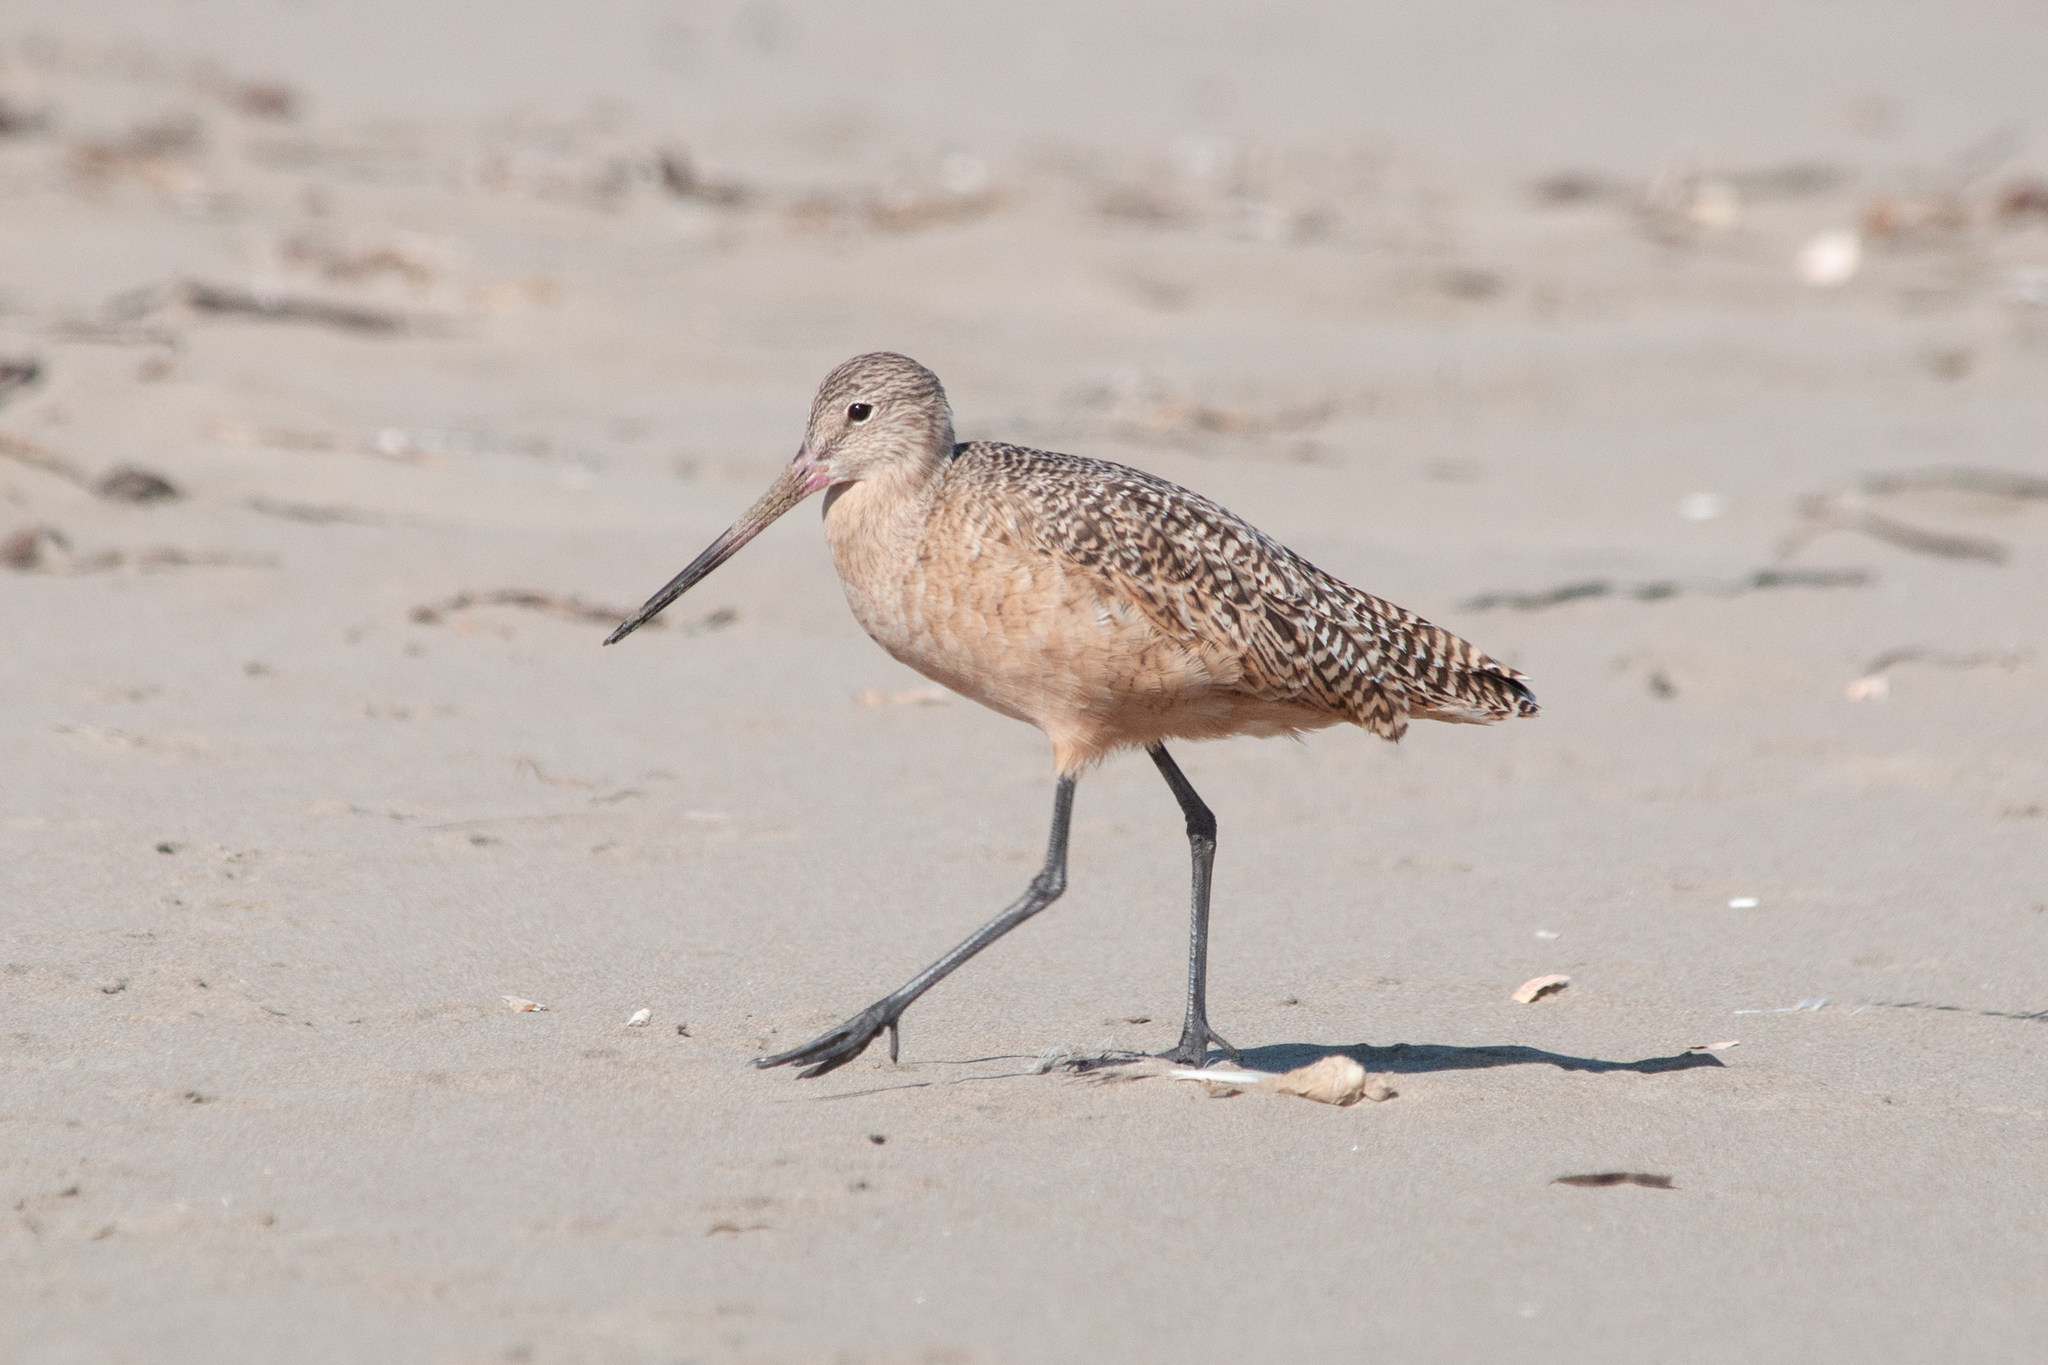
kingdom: Animalia
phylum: Chordata
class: Aves
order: Charadriiformes
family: Scolopacidae
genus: Limosa
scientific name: Limosa fedoa
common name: Marbled godwit
